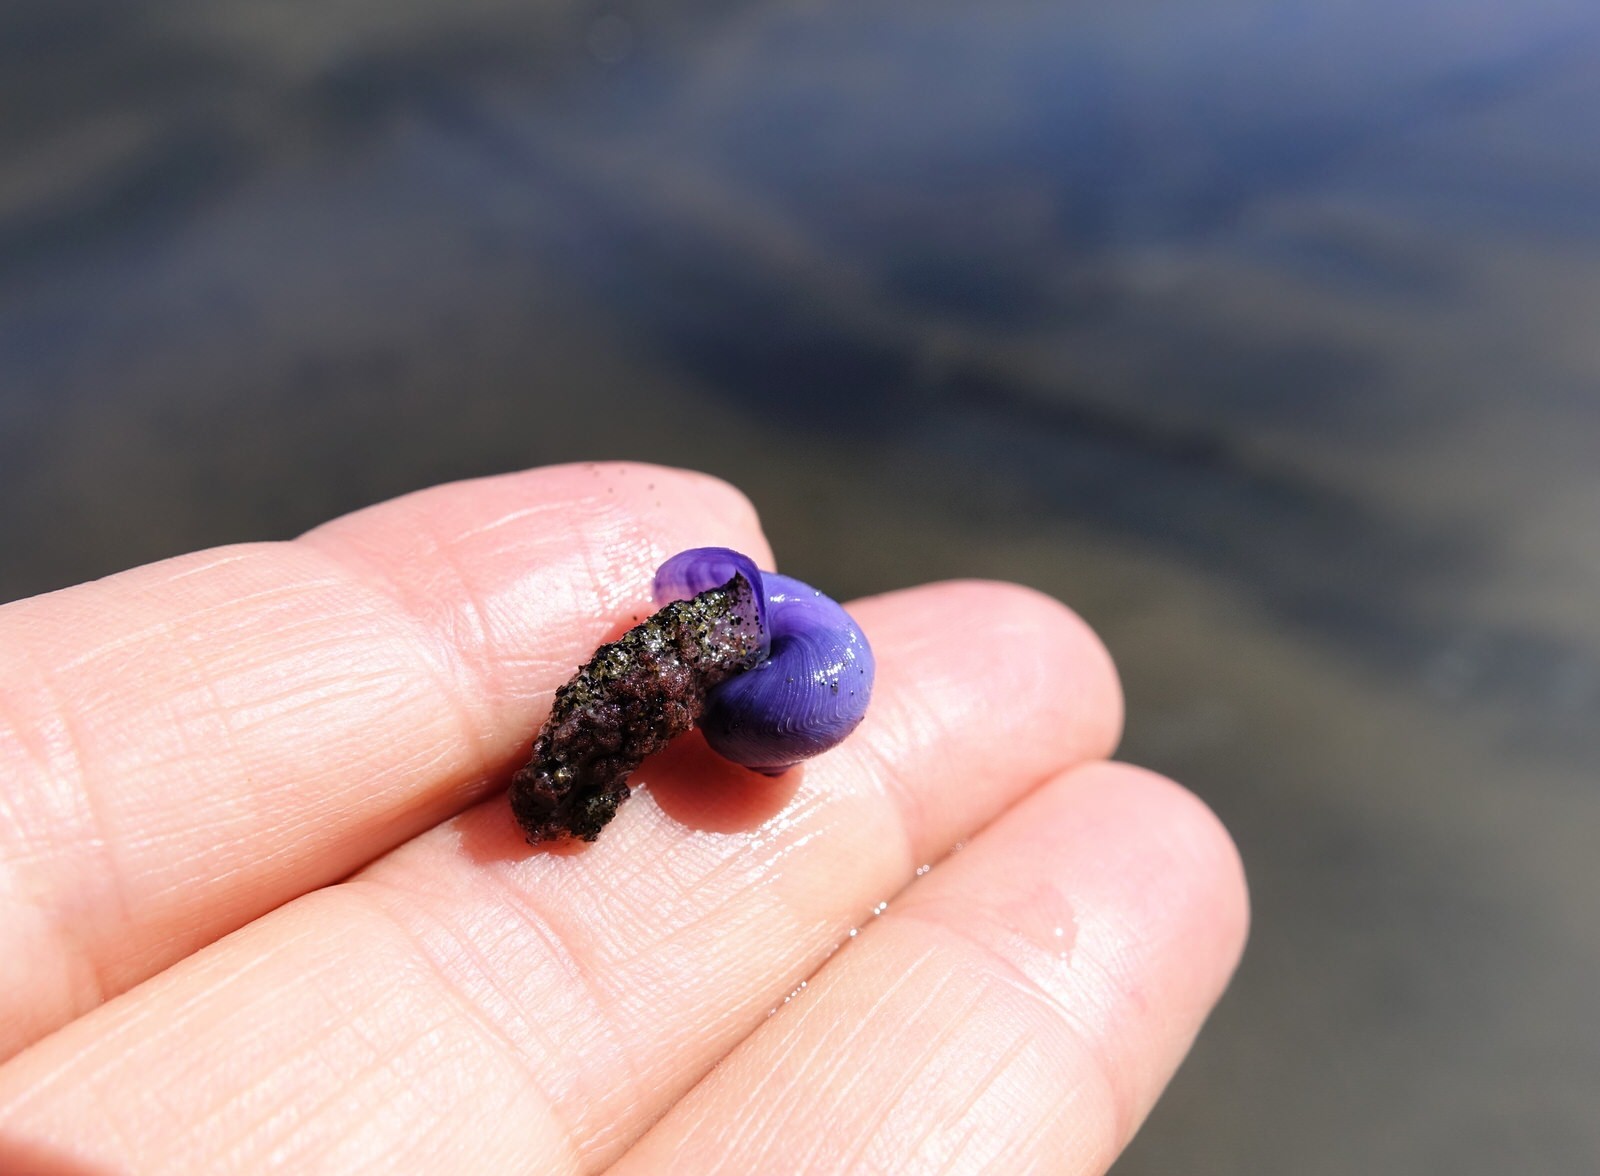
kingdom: Animalia
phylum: Mollusca
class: Gastropoda
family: Epitoniidae
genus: Janthina
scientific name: Janthina exigua
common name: Dwarf janthina
